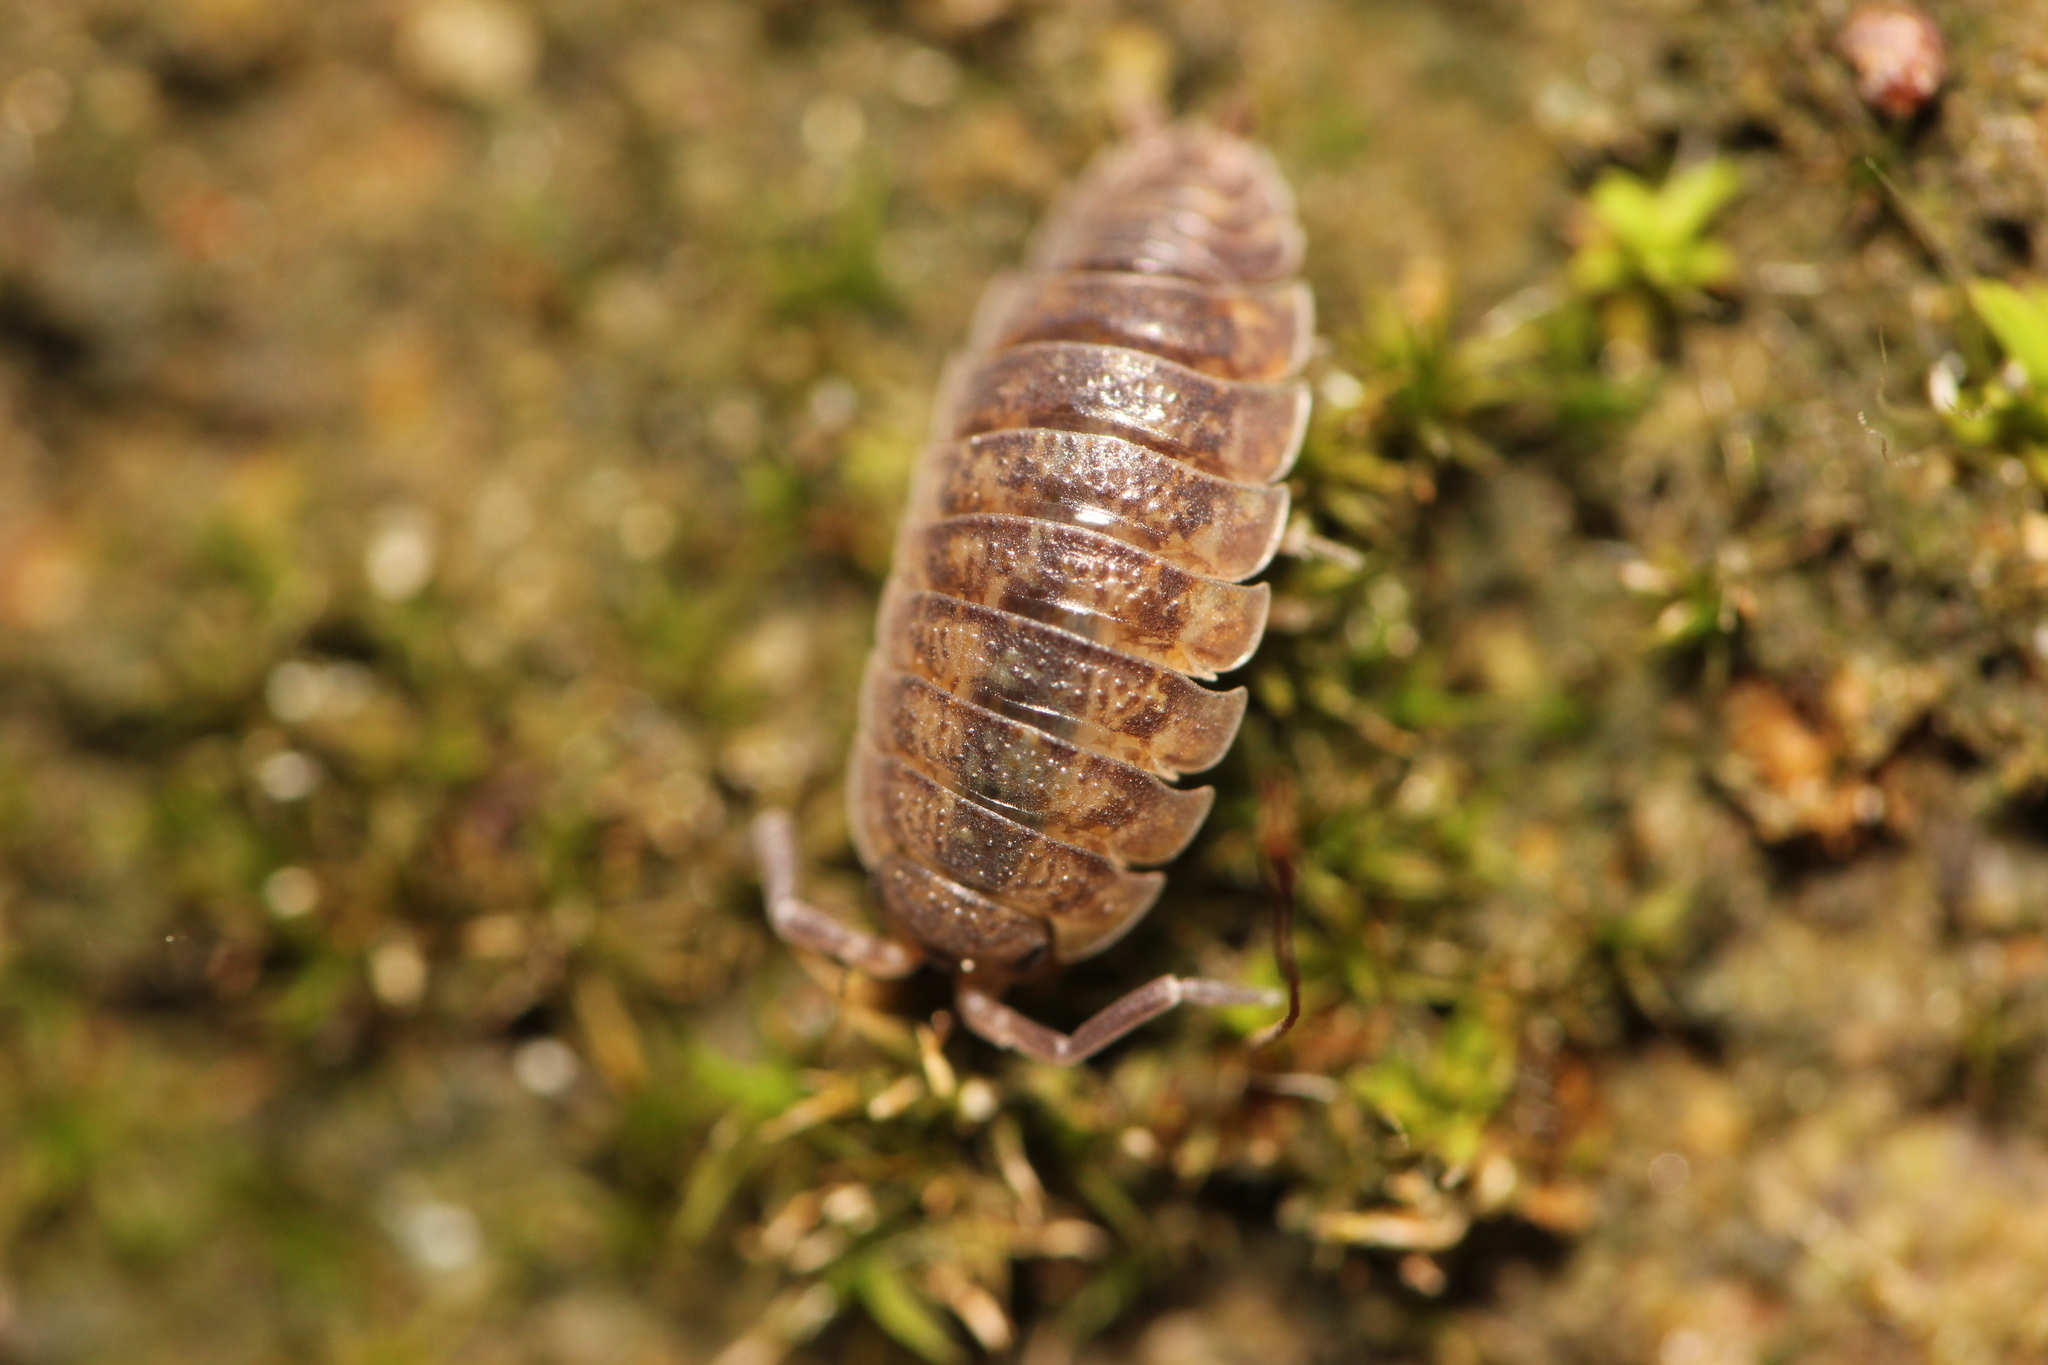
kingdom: Animalia
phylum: Arthropoda
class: Malacostraca
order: Isopoda
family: Porcellionidae
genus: Porcellio
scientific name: Porcellio scaber
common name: Common rough woodlouse
